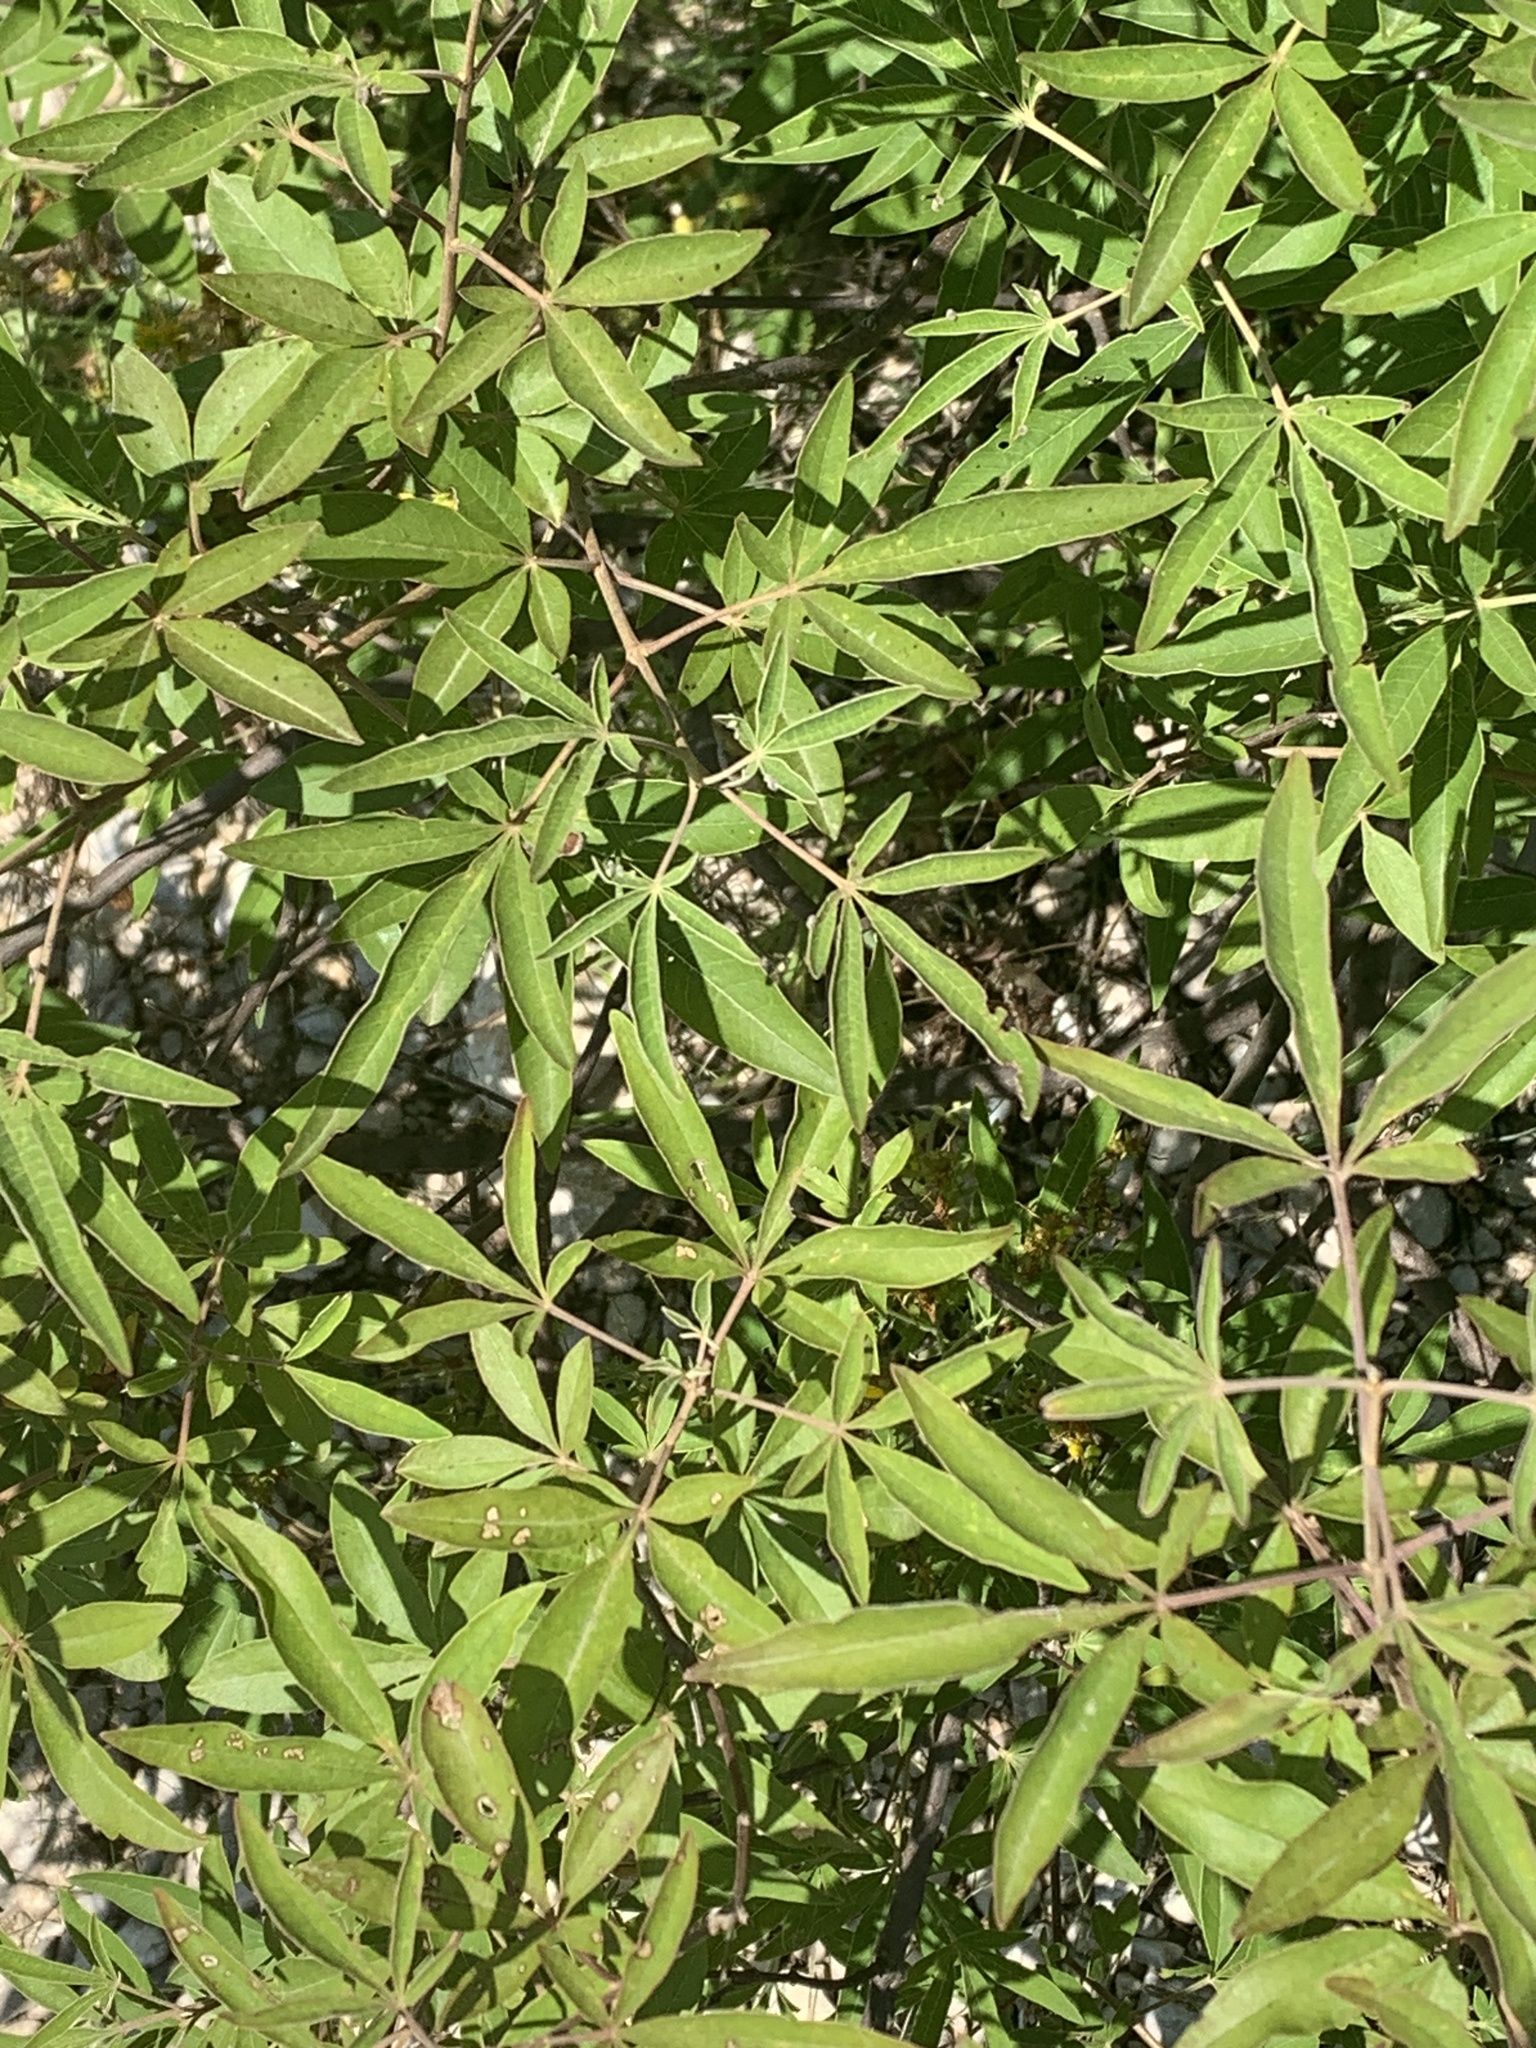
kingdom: Plantae
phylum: Tracheophyta
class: Magnoliopsida
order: Lamiales
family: Lamiaceae
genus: Vitex
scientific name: Vitex agnus-castus
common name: Chasteberry
